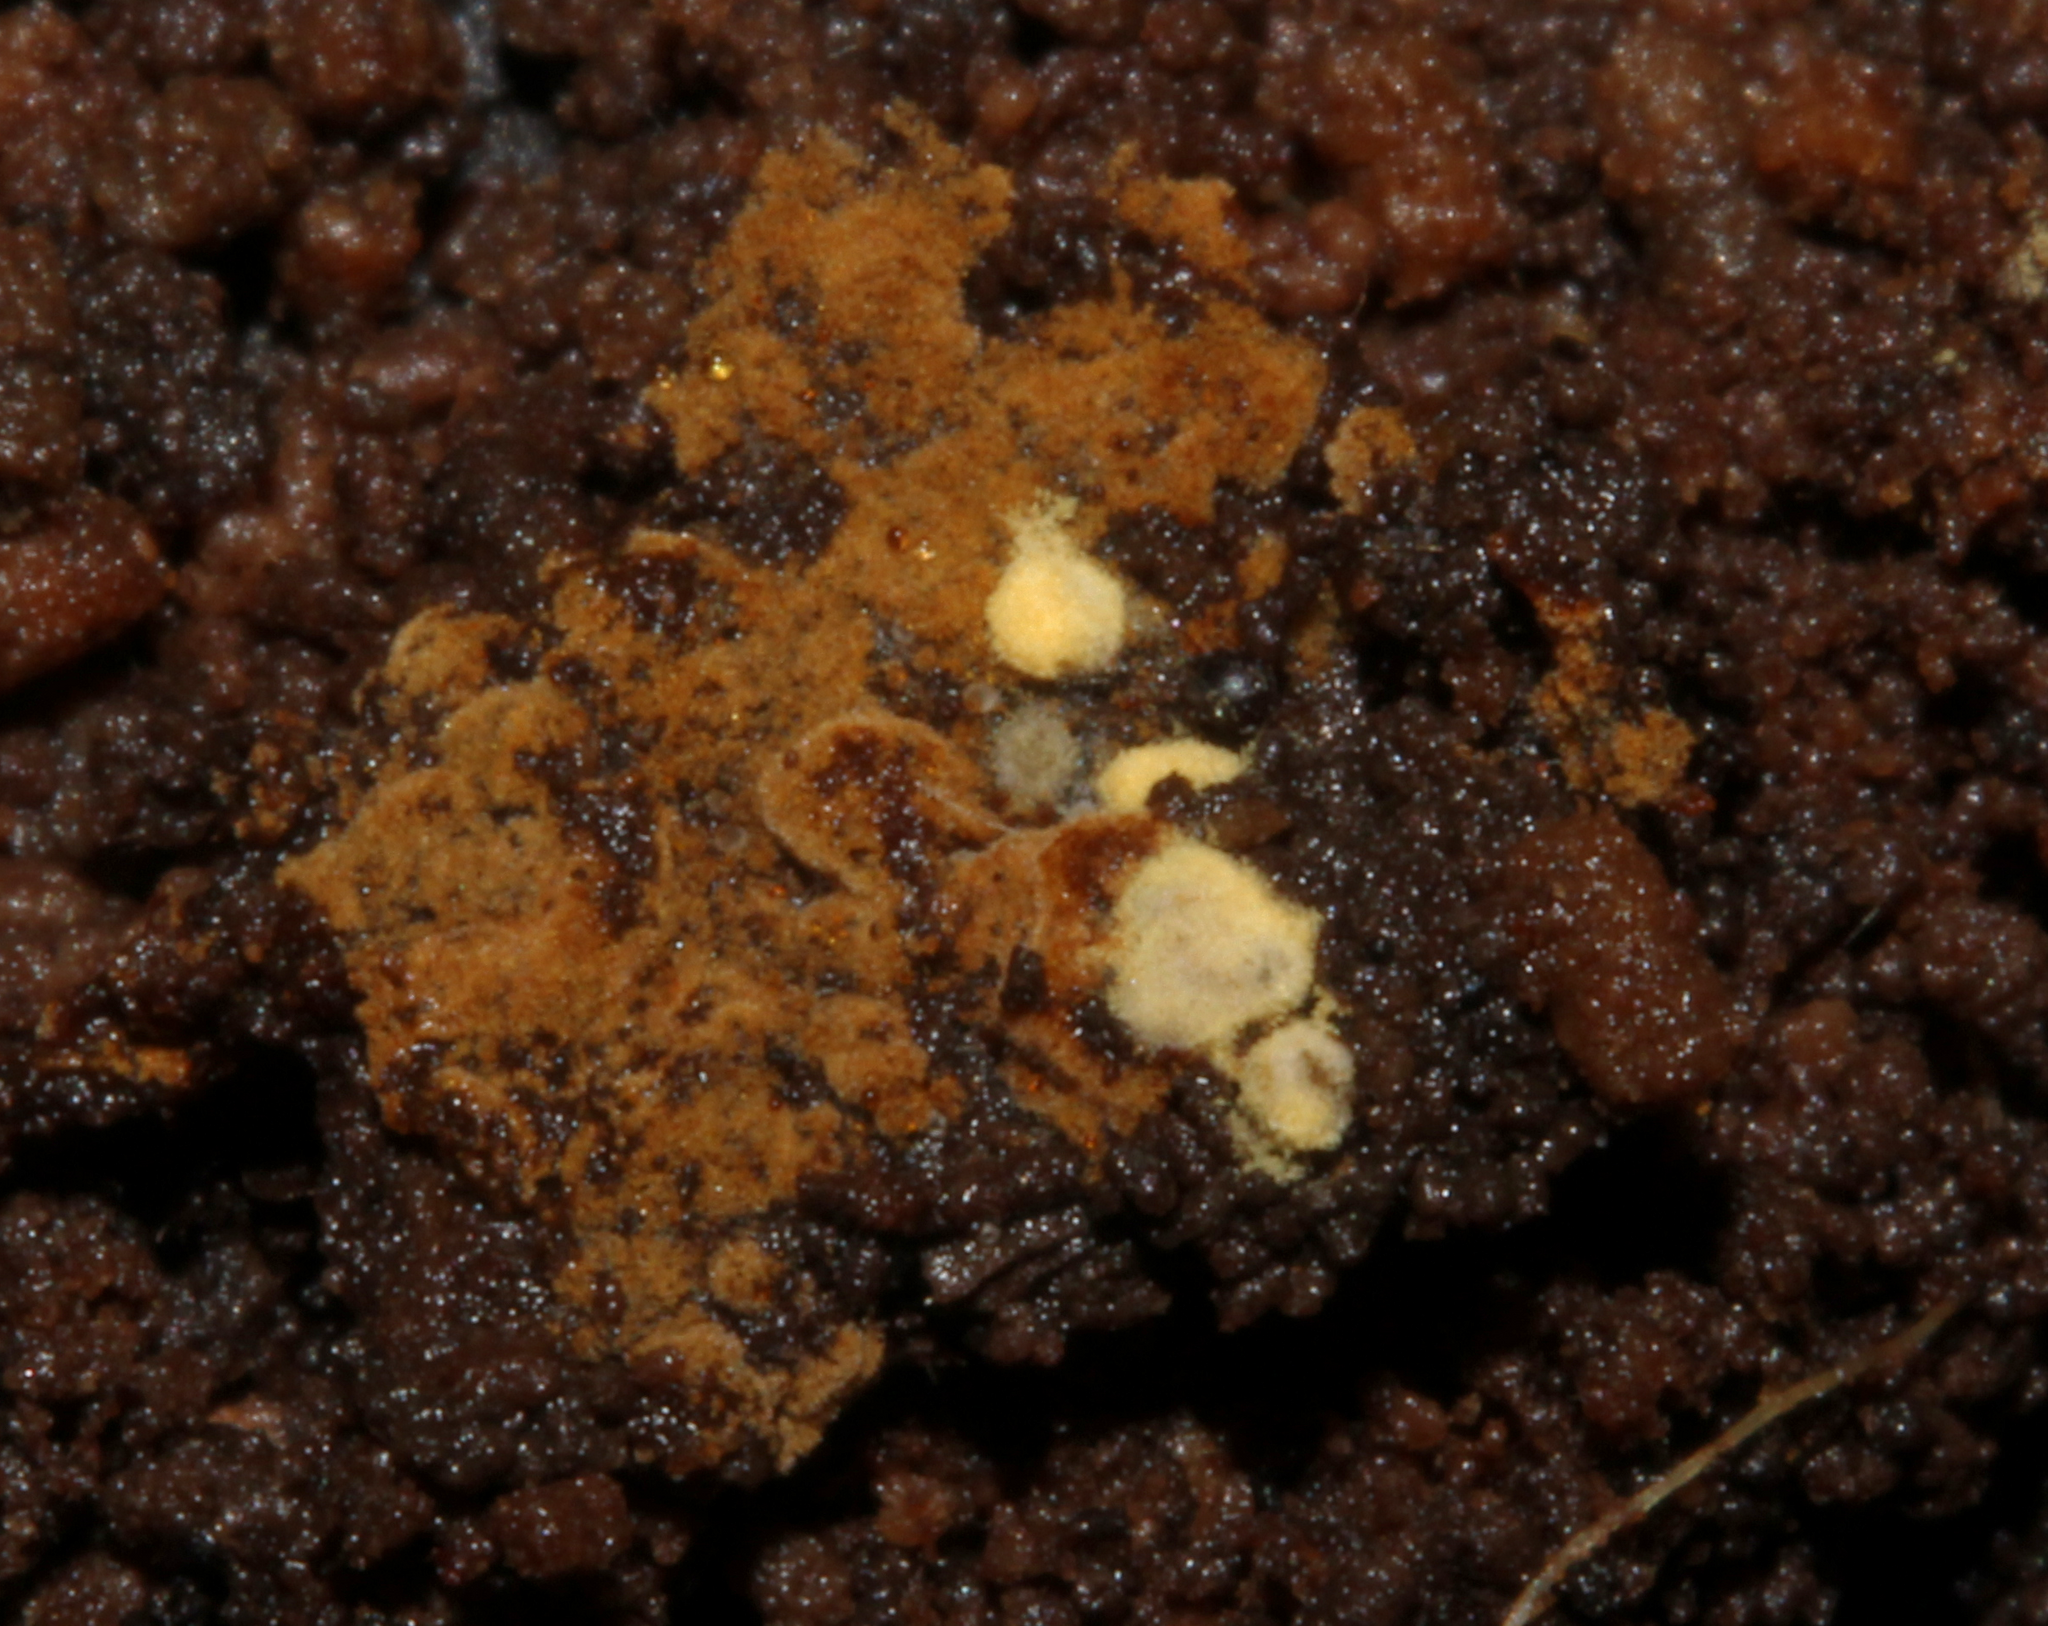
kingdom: Fungi
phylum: Basidiomycota
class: Agaricomycetes
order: Thelephorales
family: Thelephoraceae
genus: Tomentella
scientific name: Tomentella
